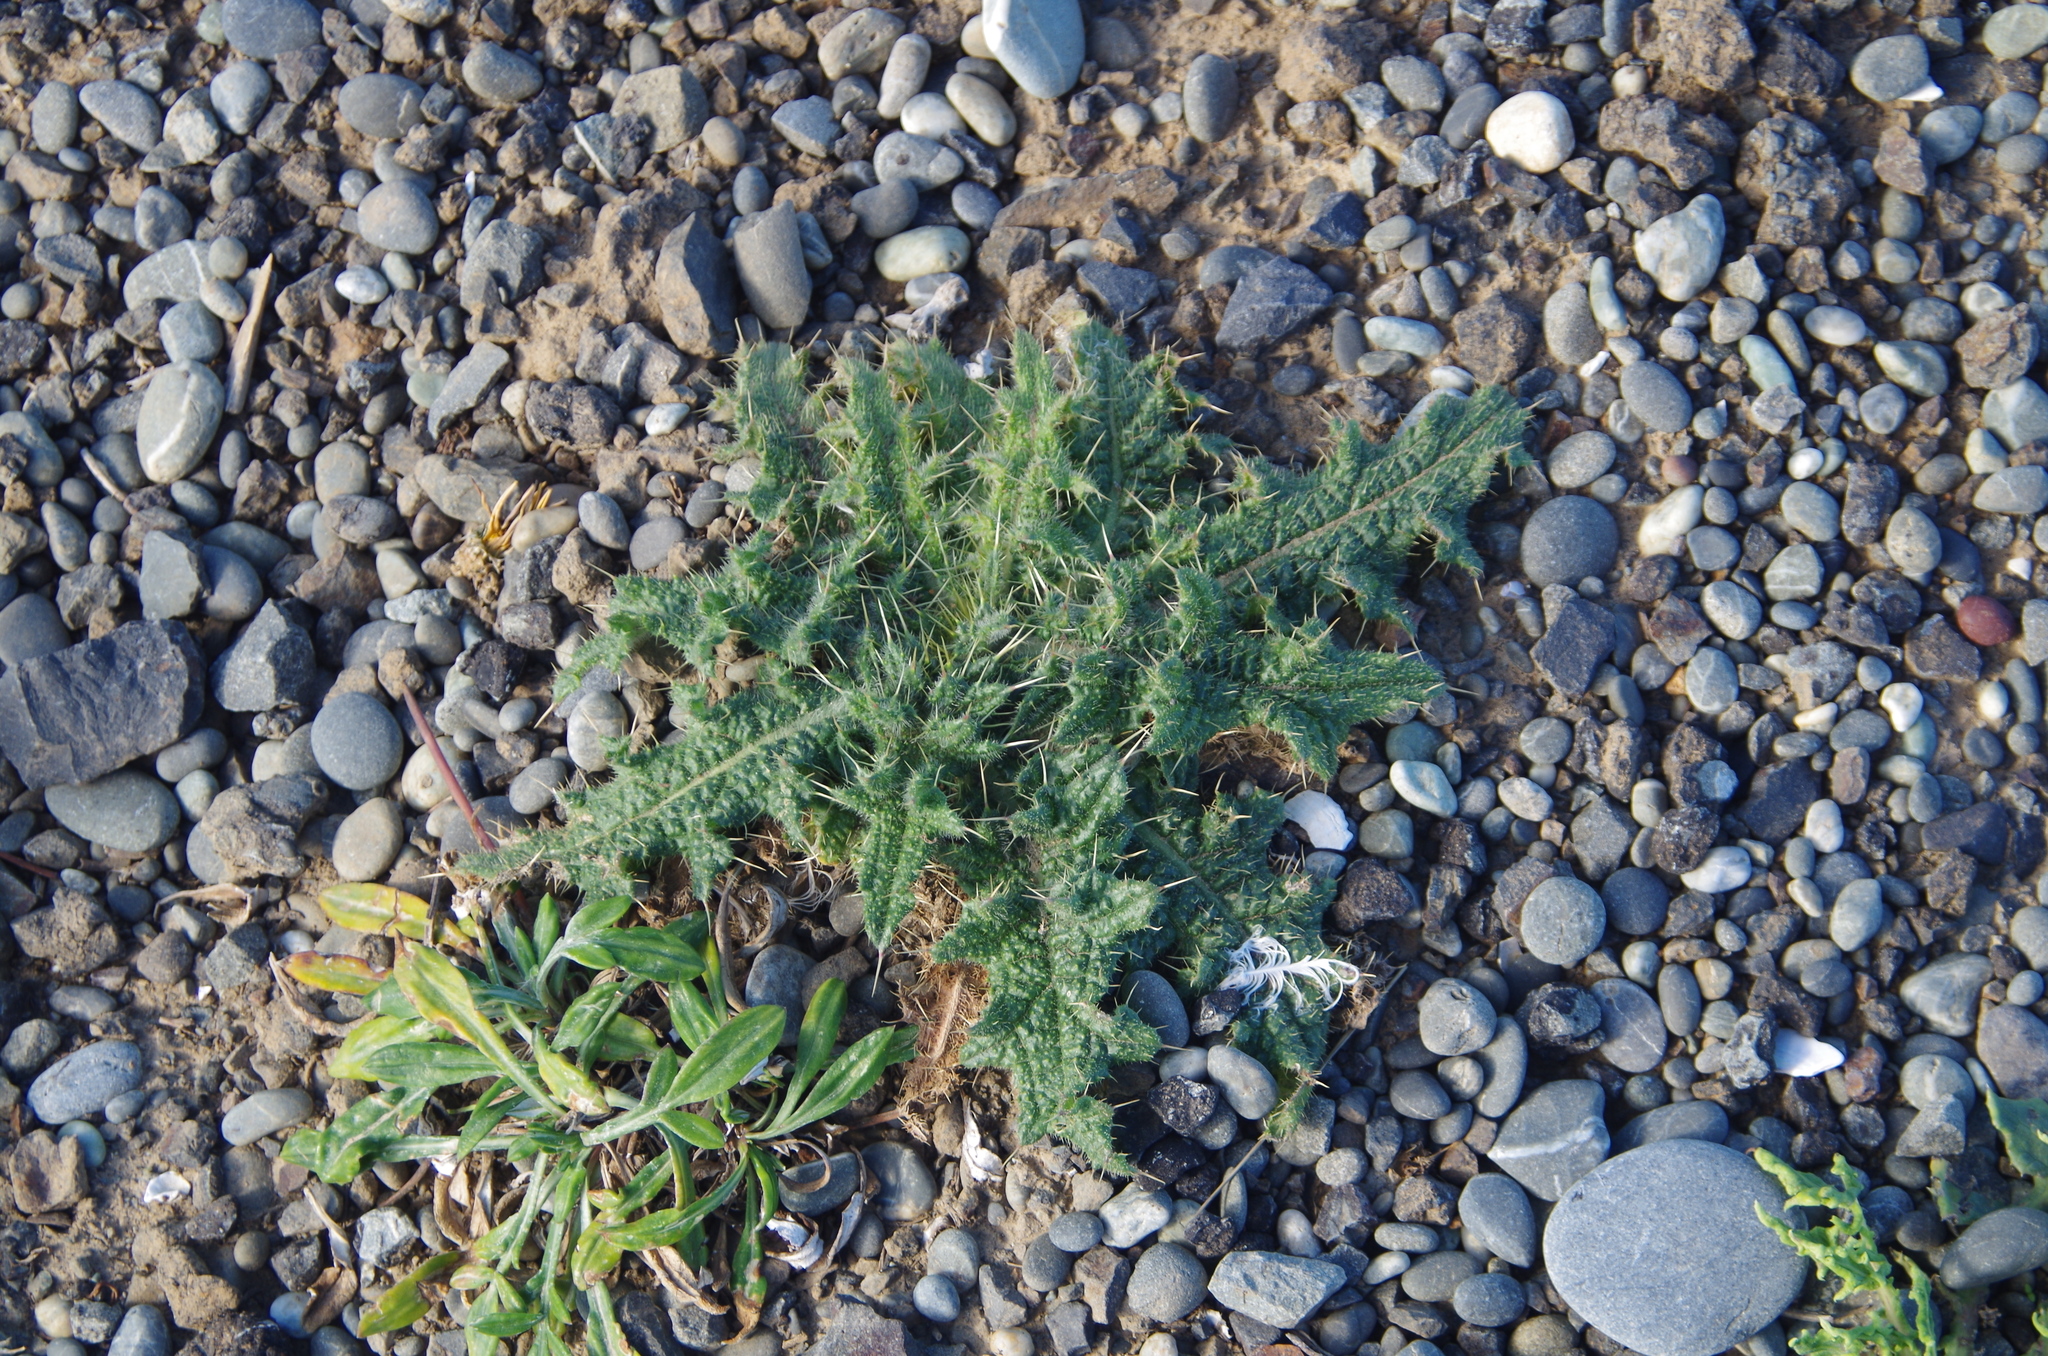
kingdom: Plantae
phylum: Tracheophyta
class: Magnoliopsida
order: Asterales
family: Asteraceae
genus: Cirsium
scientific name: Cirsium vulgare
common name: Bull thistle
